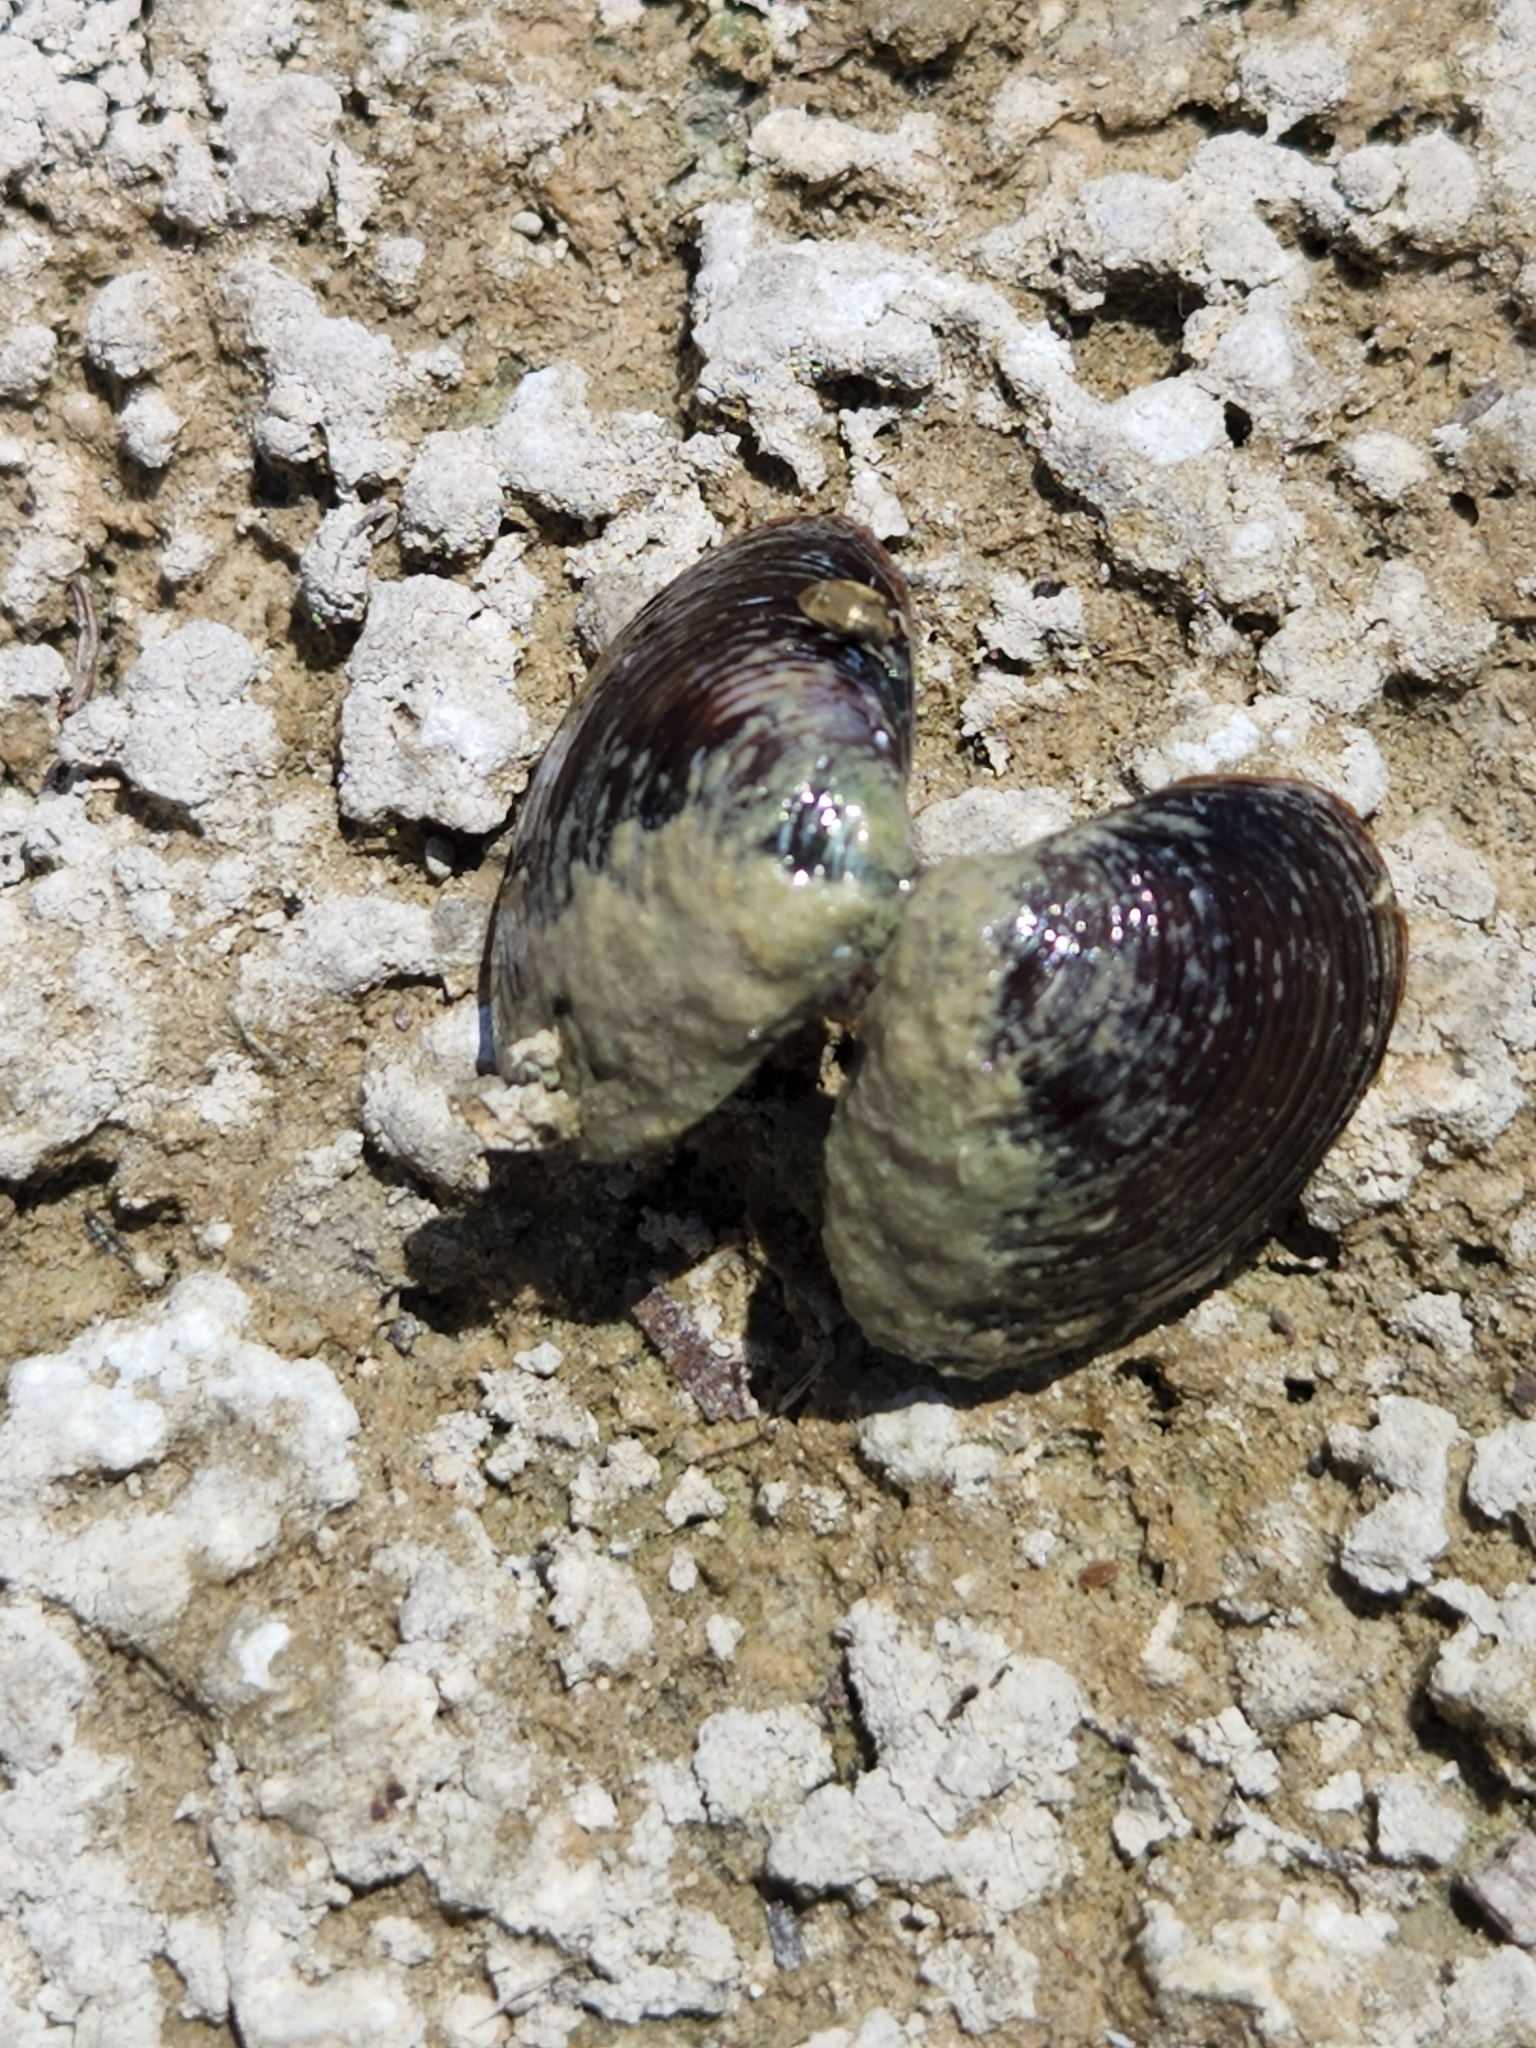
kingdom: Animalia
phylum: Mollusca
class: Bivalvia
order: Venerida
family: Cyrenidae
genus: Corbicula
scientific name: Corbicula fluminea
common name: Asian clam
